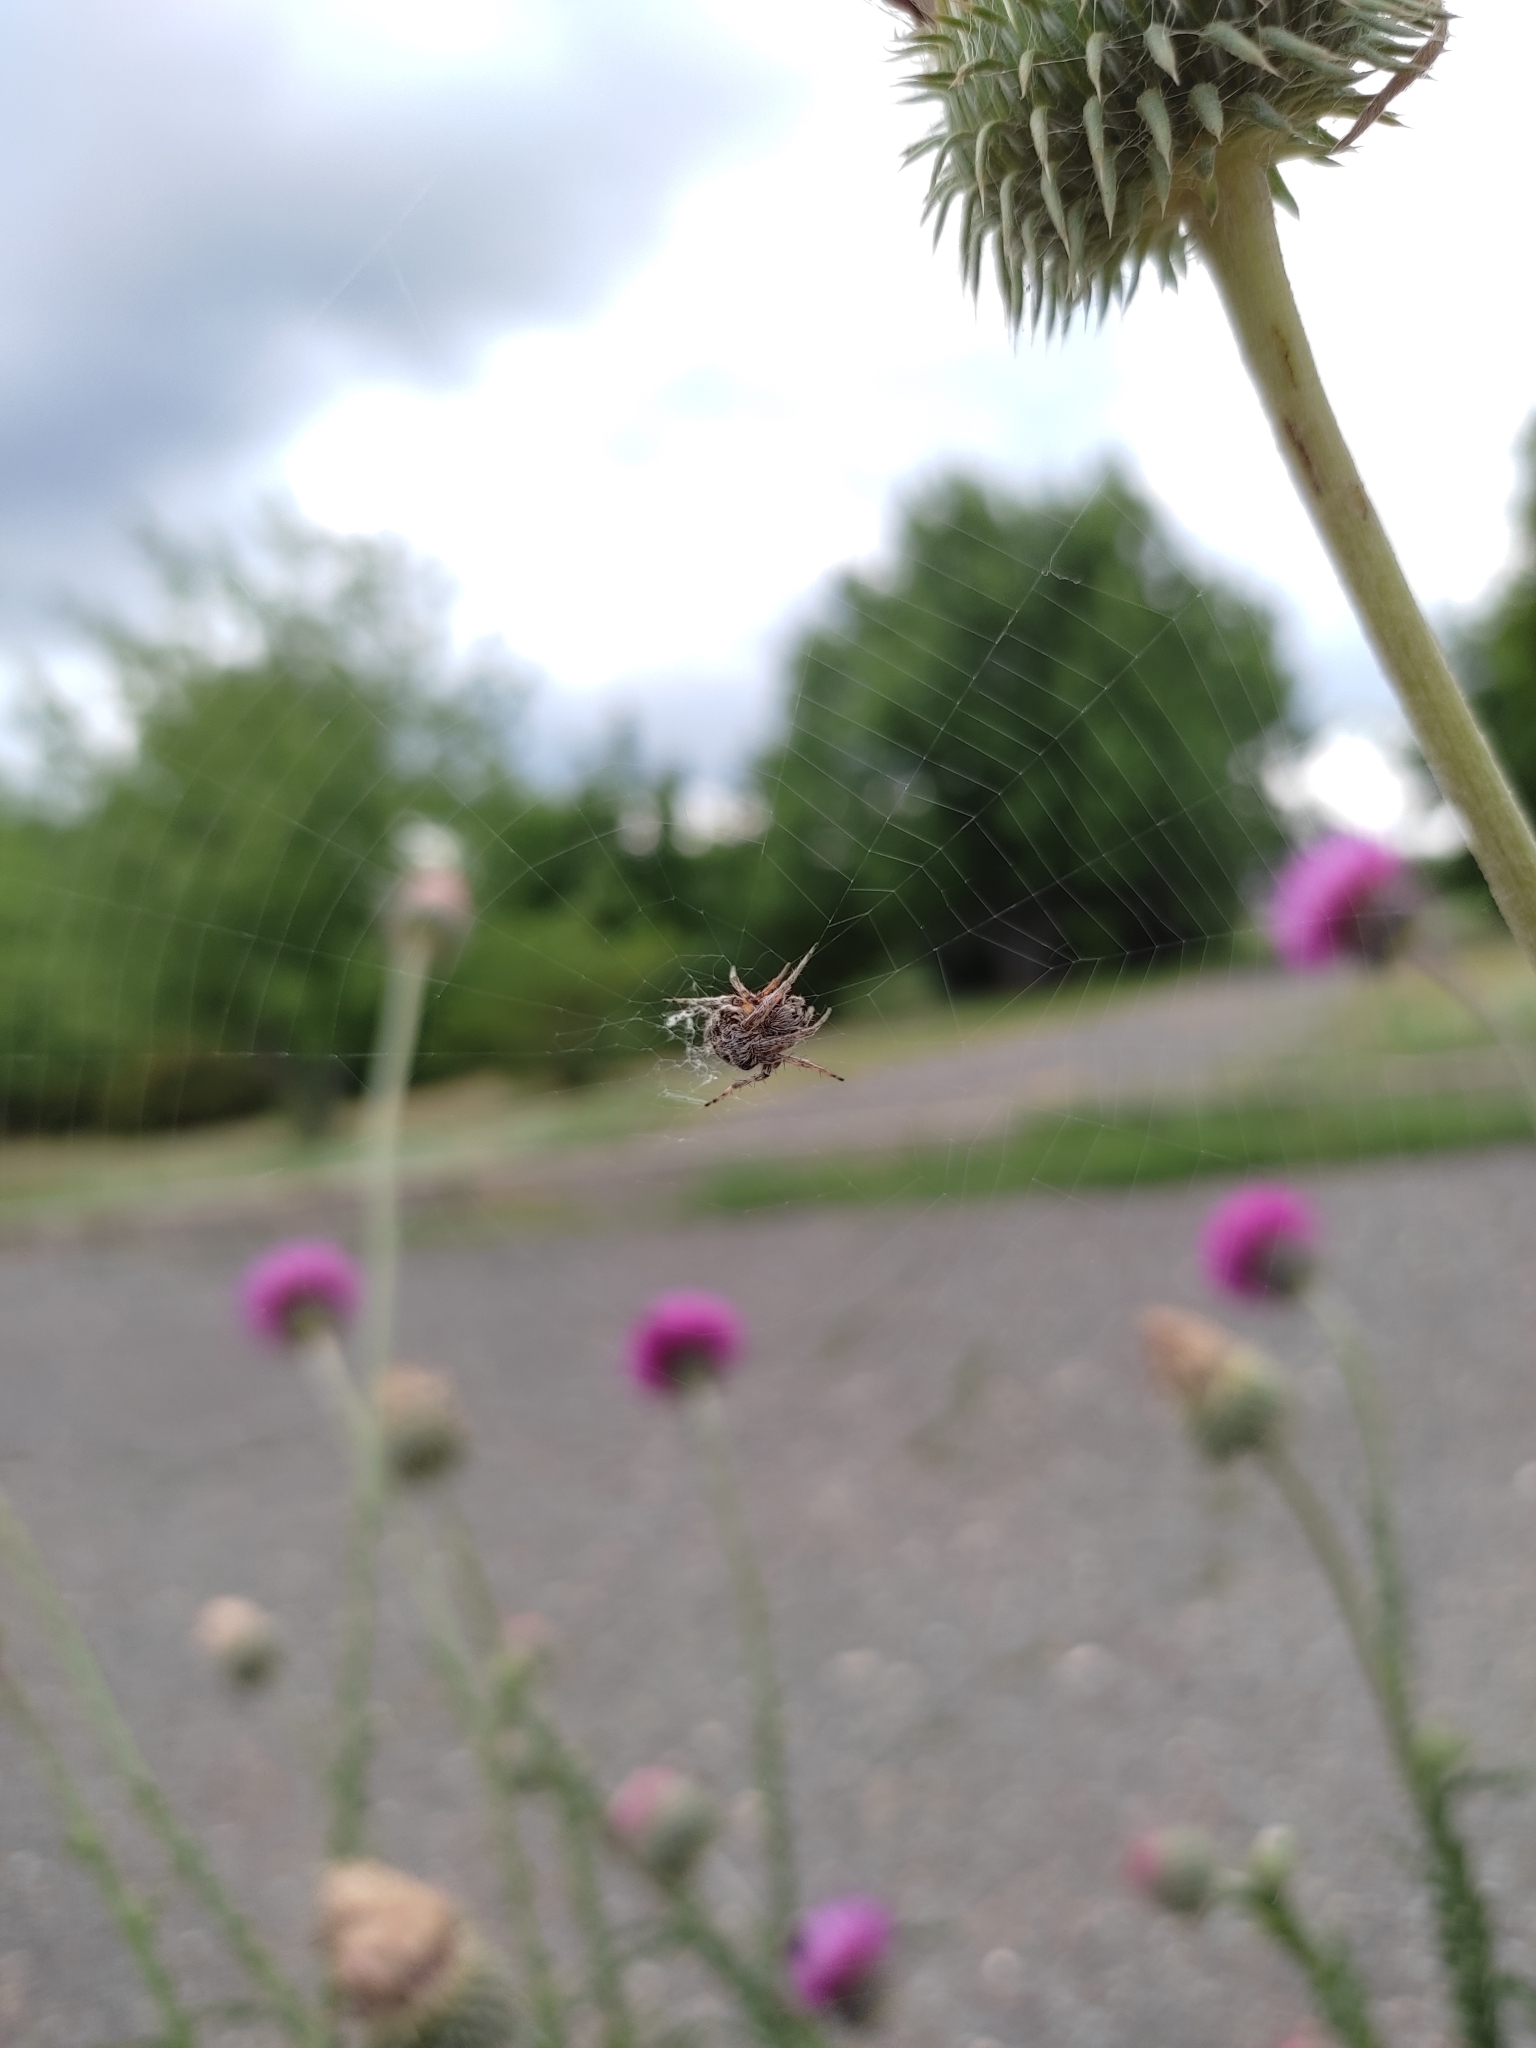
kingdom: Animalia
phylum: Arthropoda
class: Arachnida
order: Araneae
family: Araneidae
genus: Agalenatea
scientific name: Agalenatea redii
